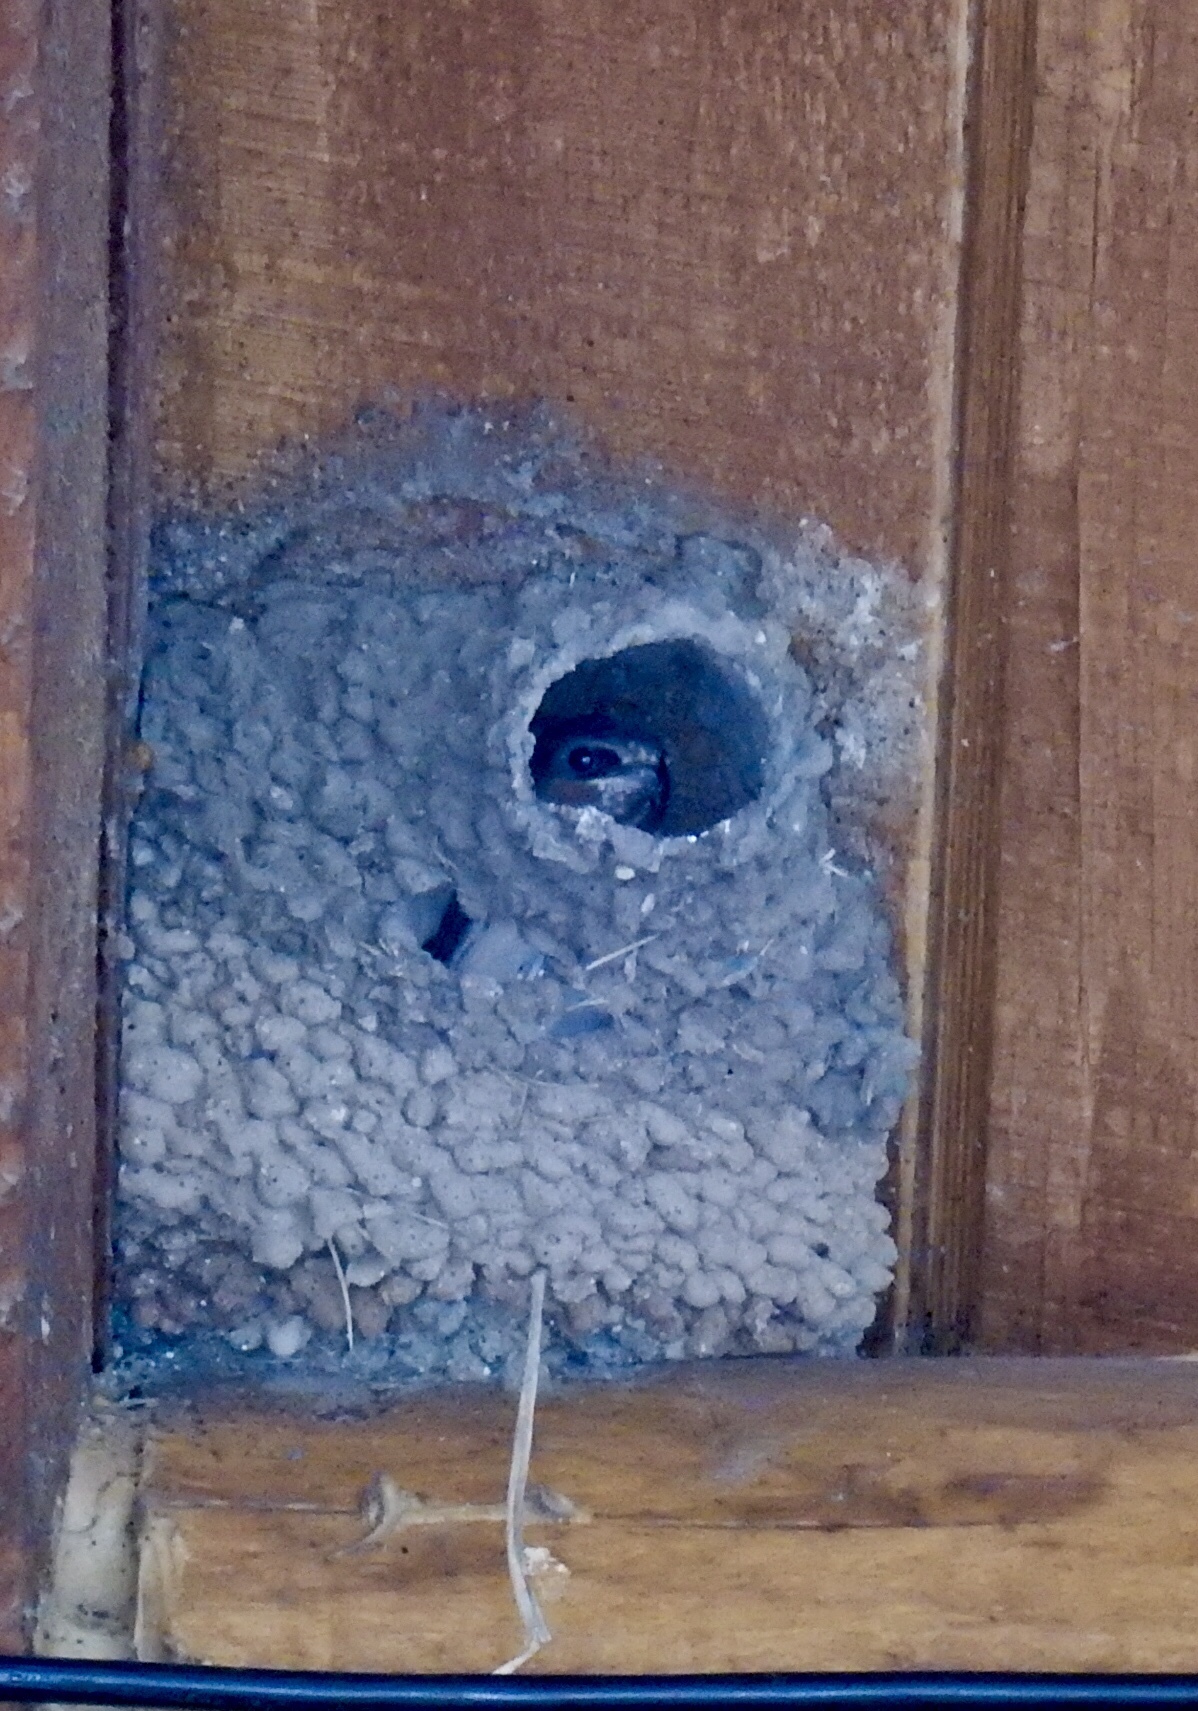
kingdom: Animalia
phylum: Chordata
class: Aves
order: Passeriformes
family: Hirundinidae
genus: Petrochelidon
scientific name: Petrochelidon pyrrhonota
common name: American cliff swallow
